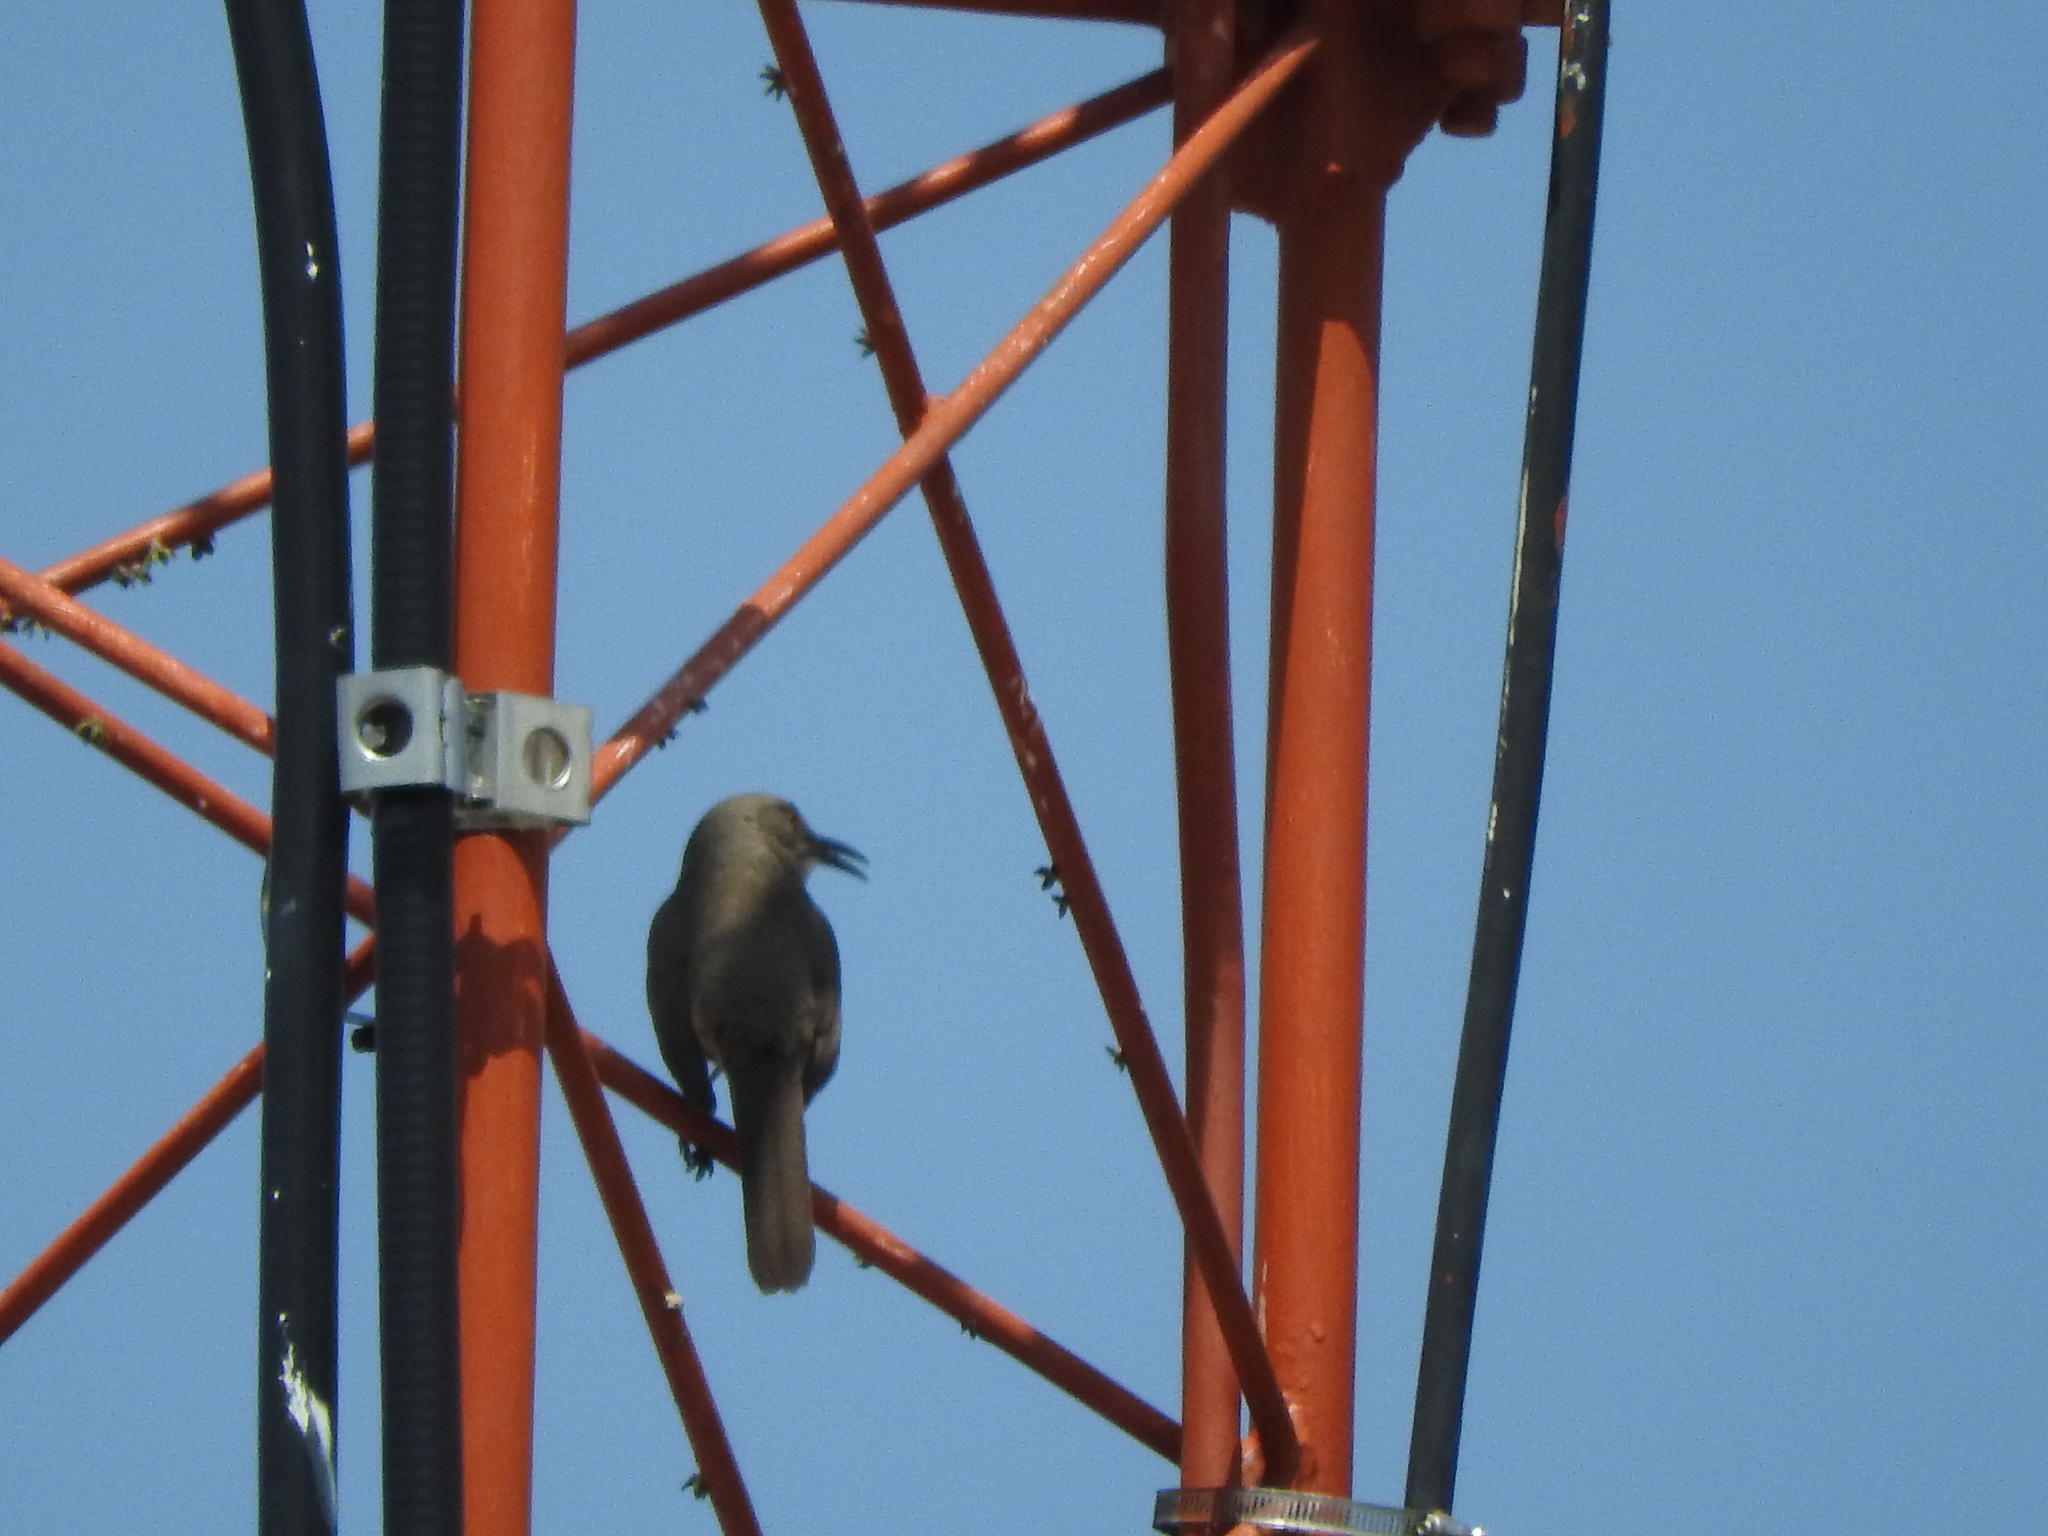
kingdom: Animalia
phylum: Chordata
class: Aves
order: Passeriformes
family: Mimidae
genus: Toxostoma
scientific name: Toxostoma curvirostre
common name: Curve-billed thrasher
